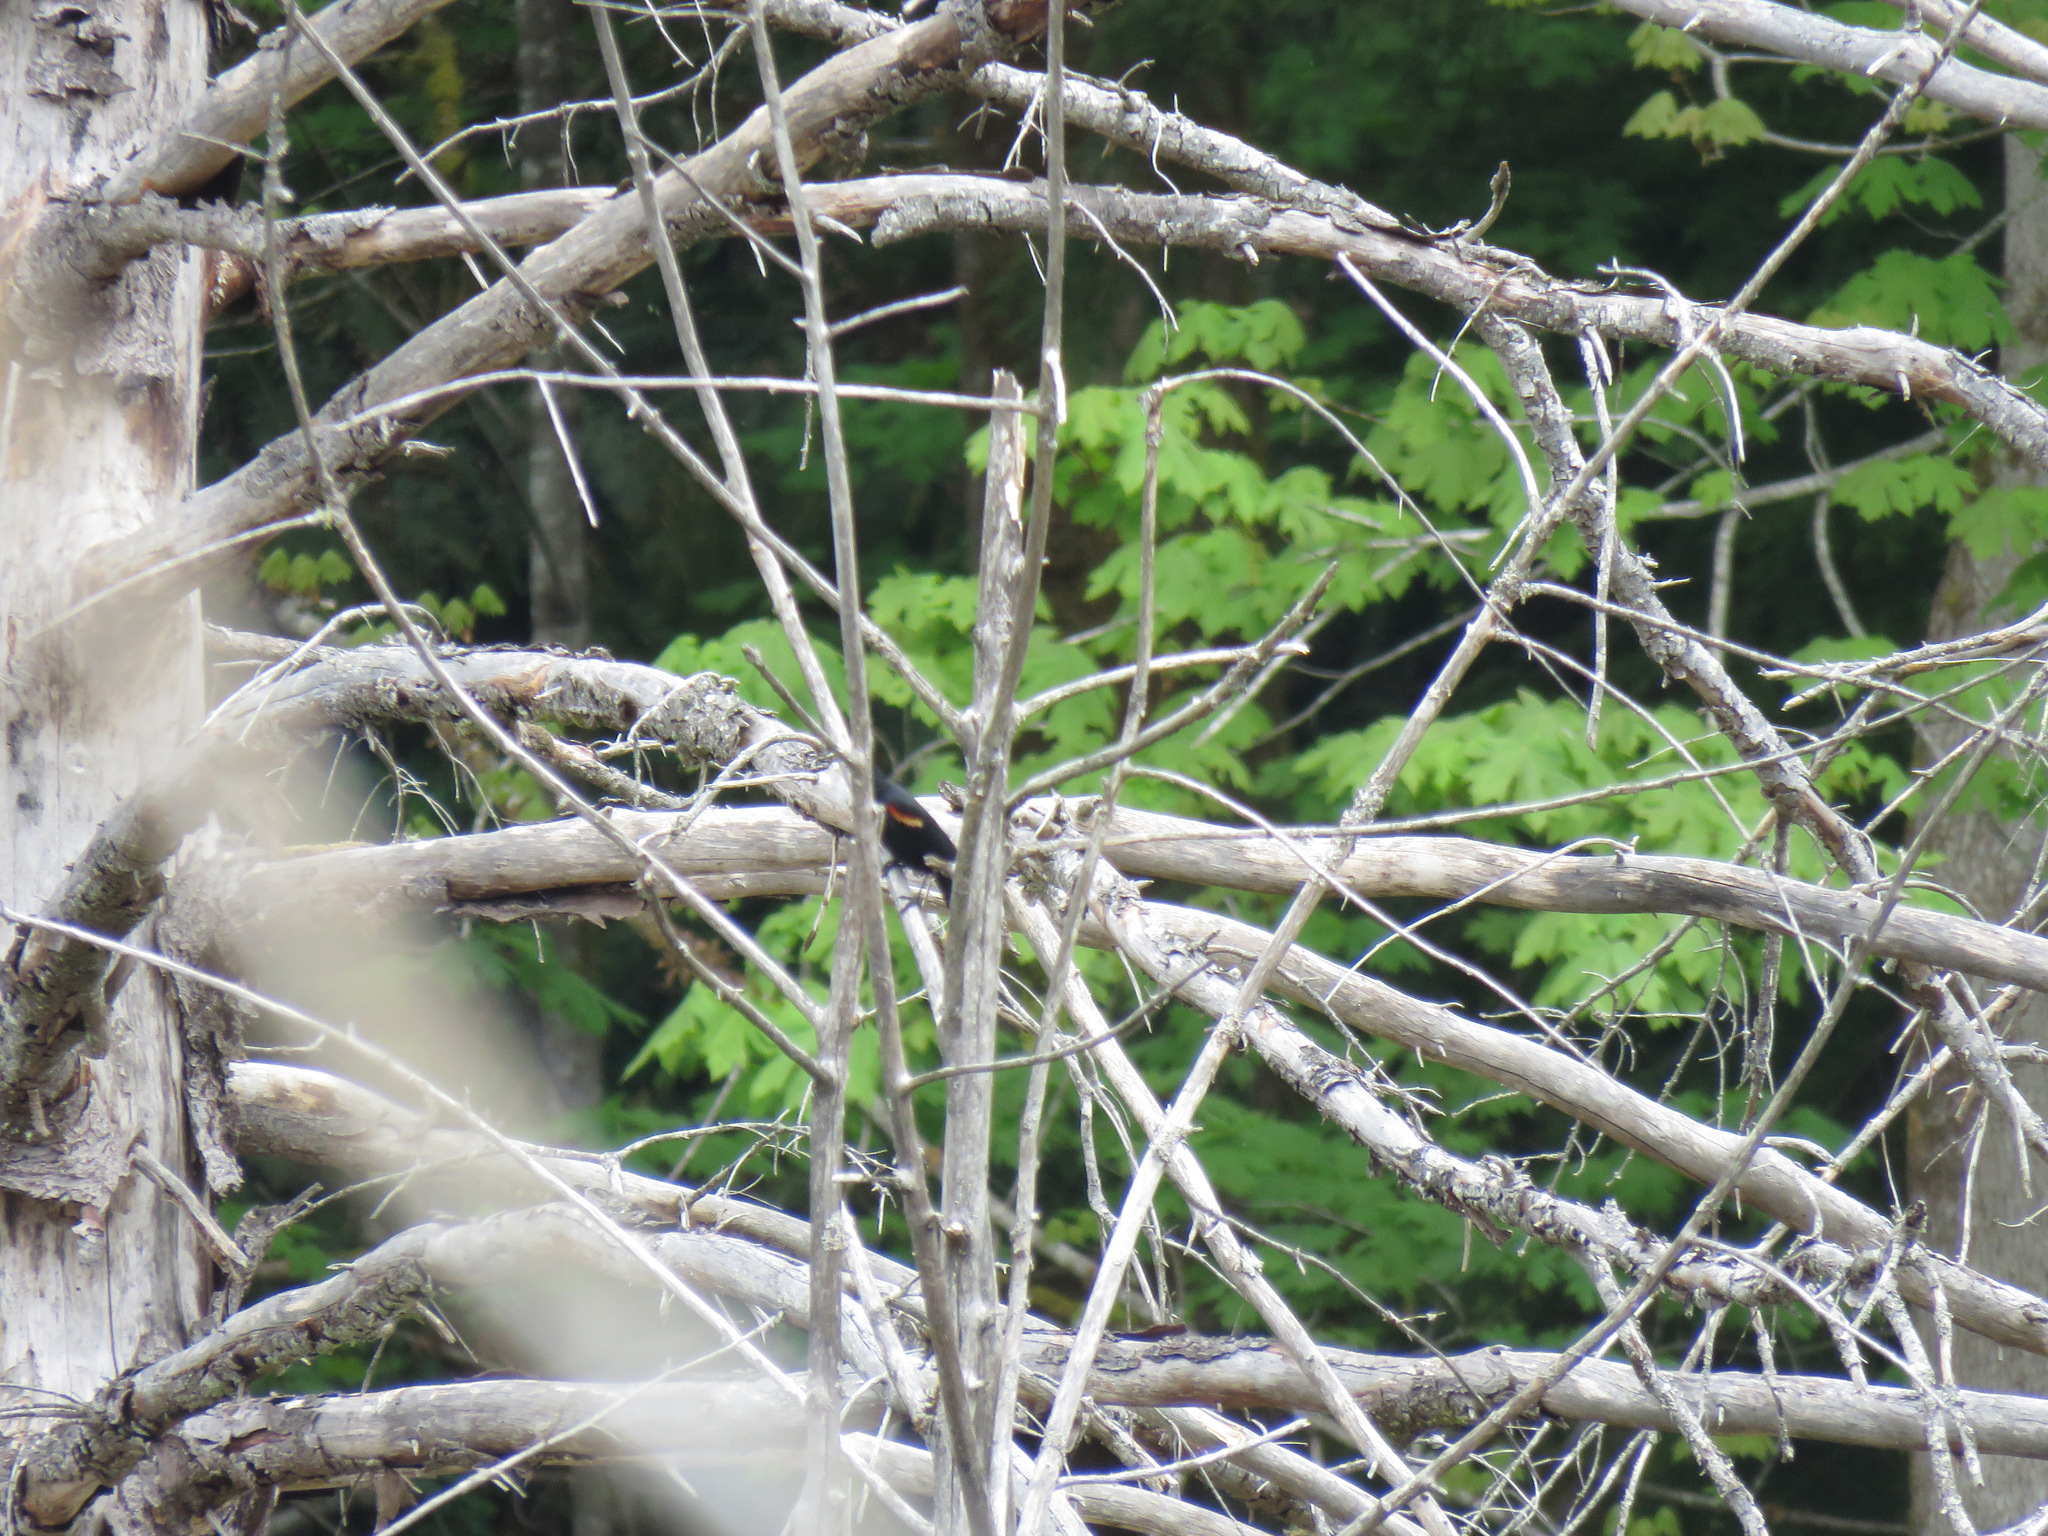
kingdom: Animalia
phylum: Chordata
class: Aves
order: Passeriformes
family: Icteridae
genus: Agelaius
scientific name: Agelaius phoeniceus
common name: Red-winged blackbird
